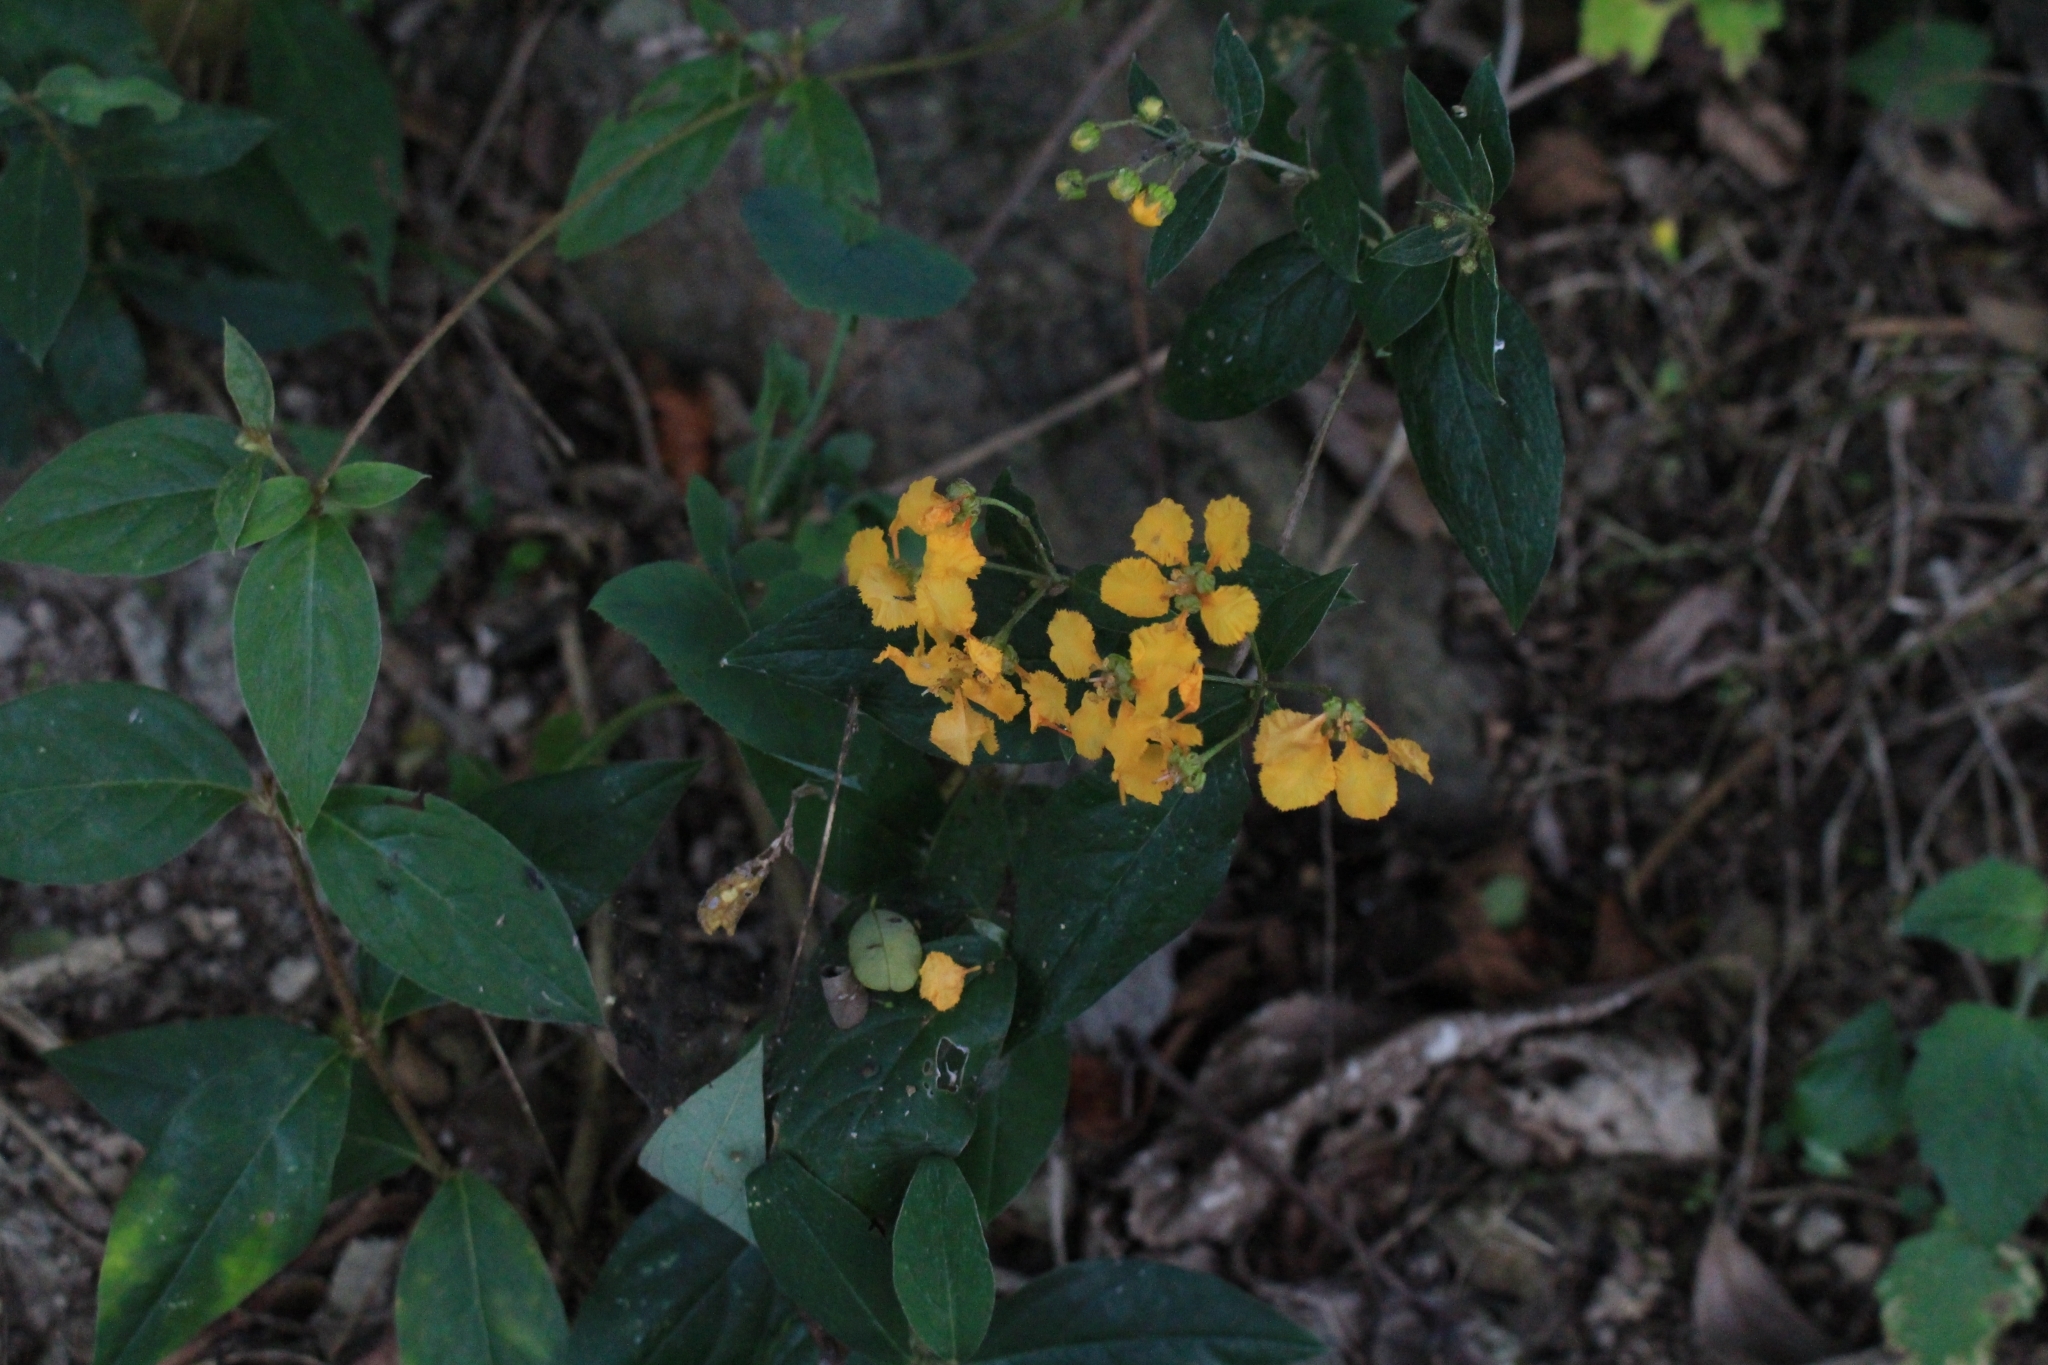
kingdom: Plantae
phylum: Tracheophyta
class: Magnoliopsida
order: Malpighiales
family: Malpighiaceae
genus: Gaudichaudia
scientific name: Gaudichaudia hexandra
